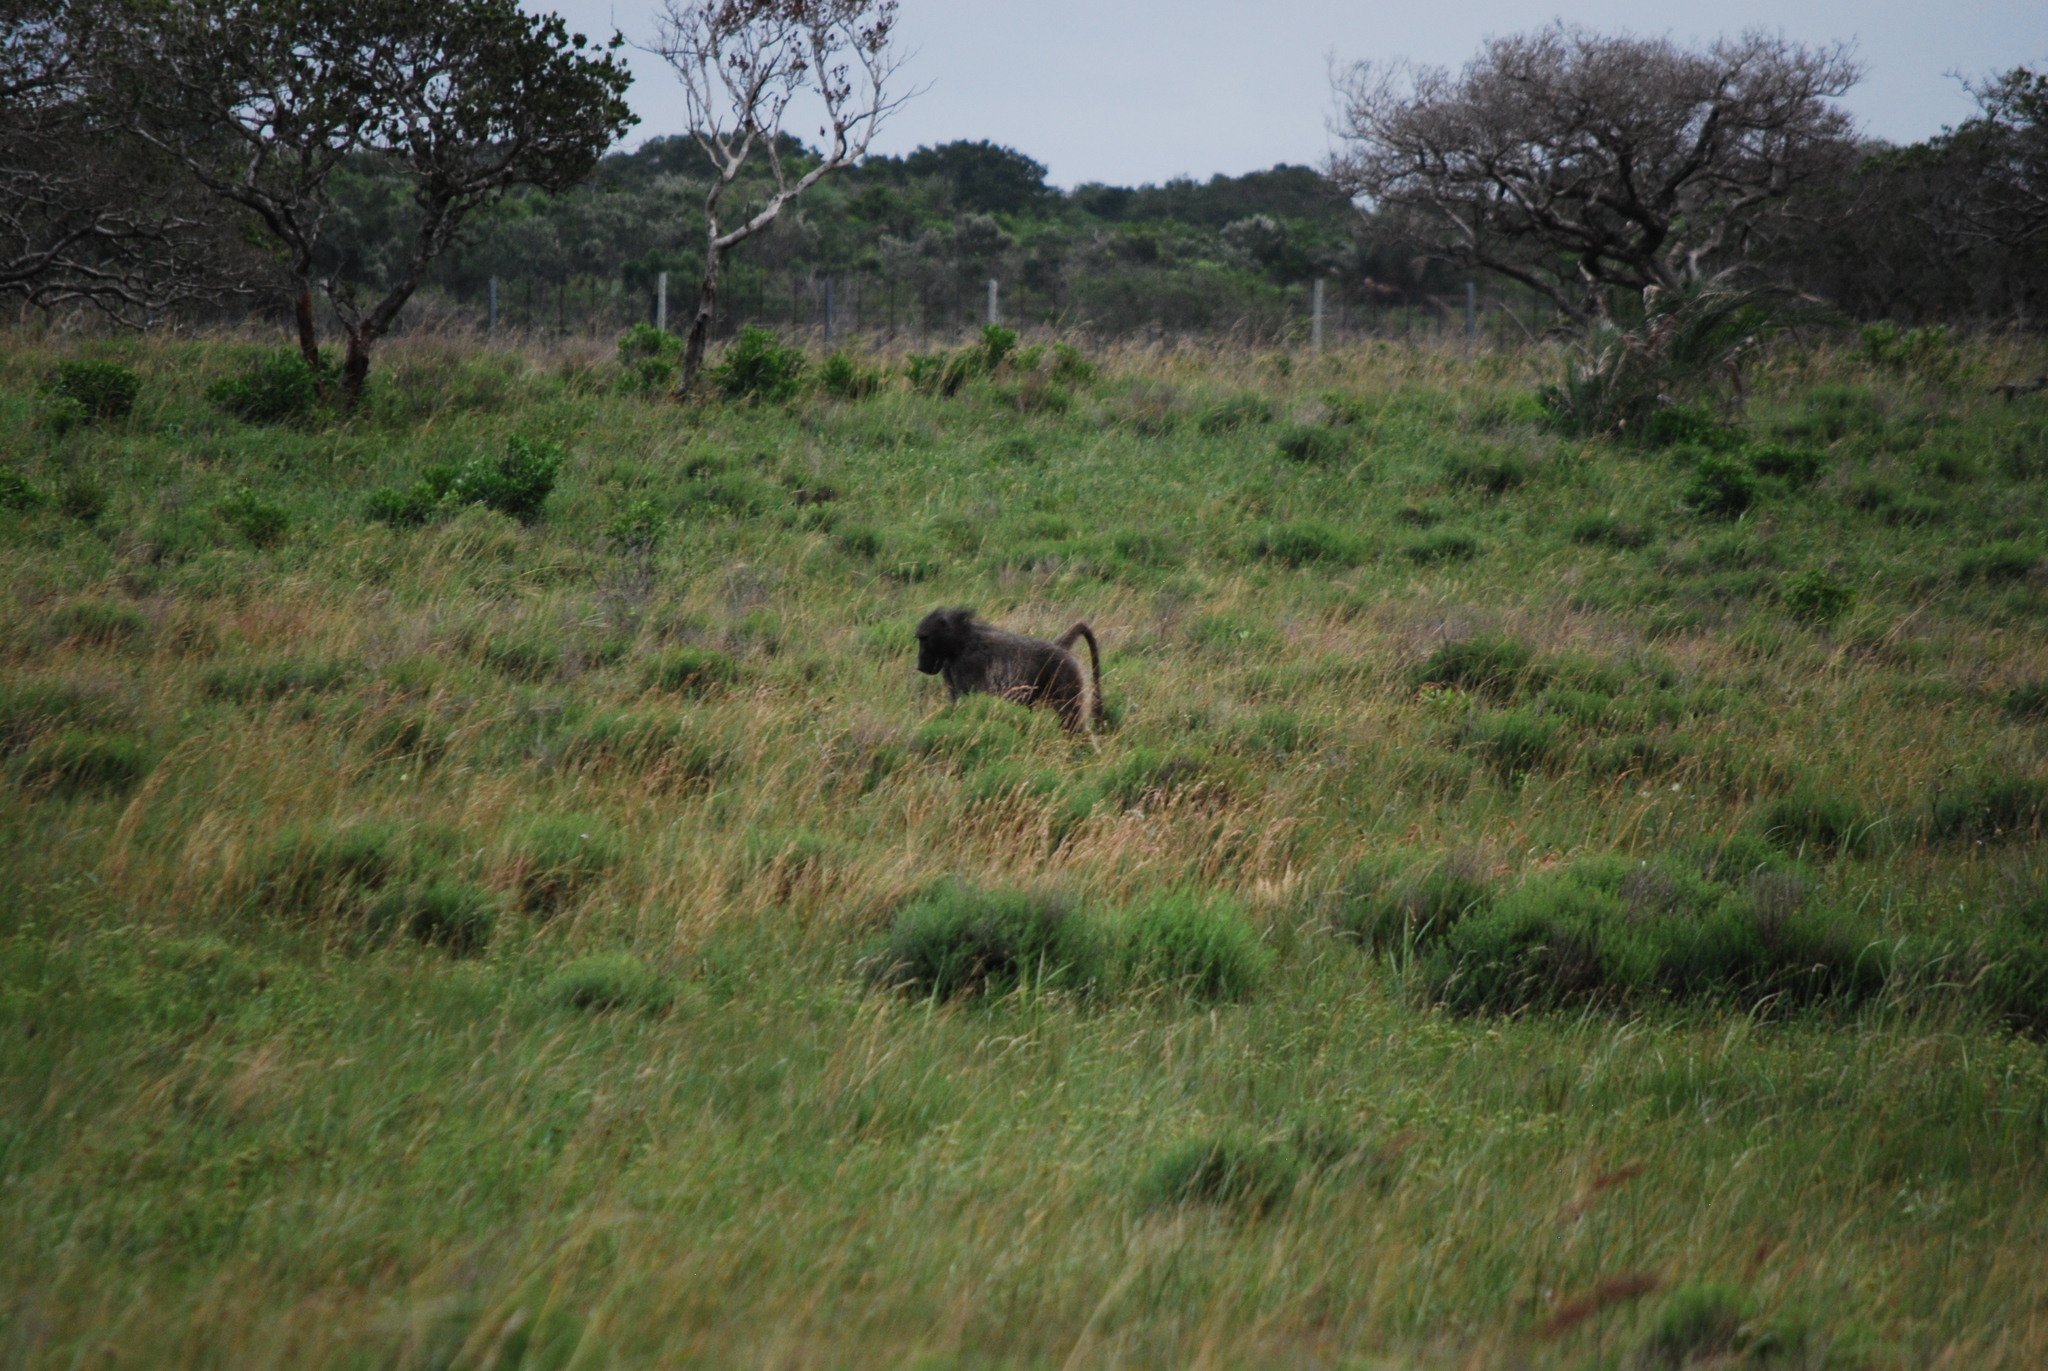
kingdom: Animalia
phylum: Chordata
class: Mammalia
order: Primates
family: Cercopithecidae
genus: Papio
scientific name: Papio ursinus
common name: Chacma baboon
